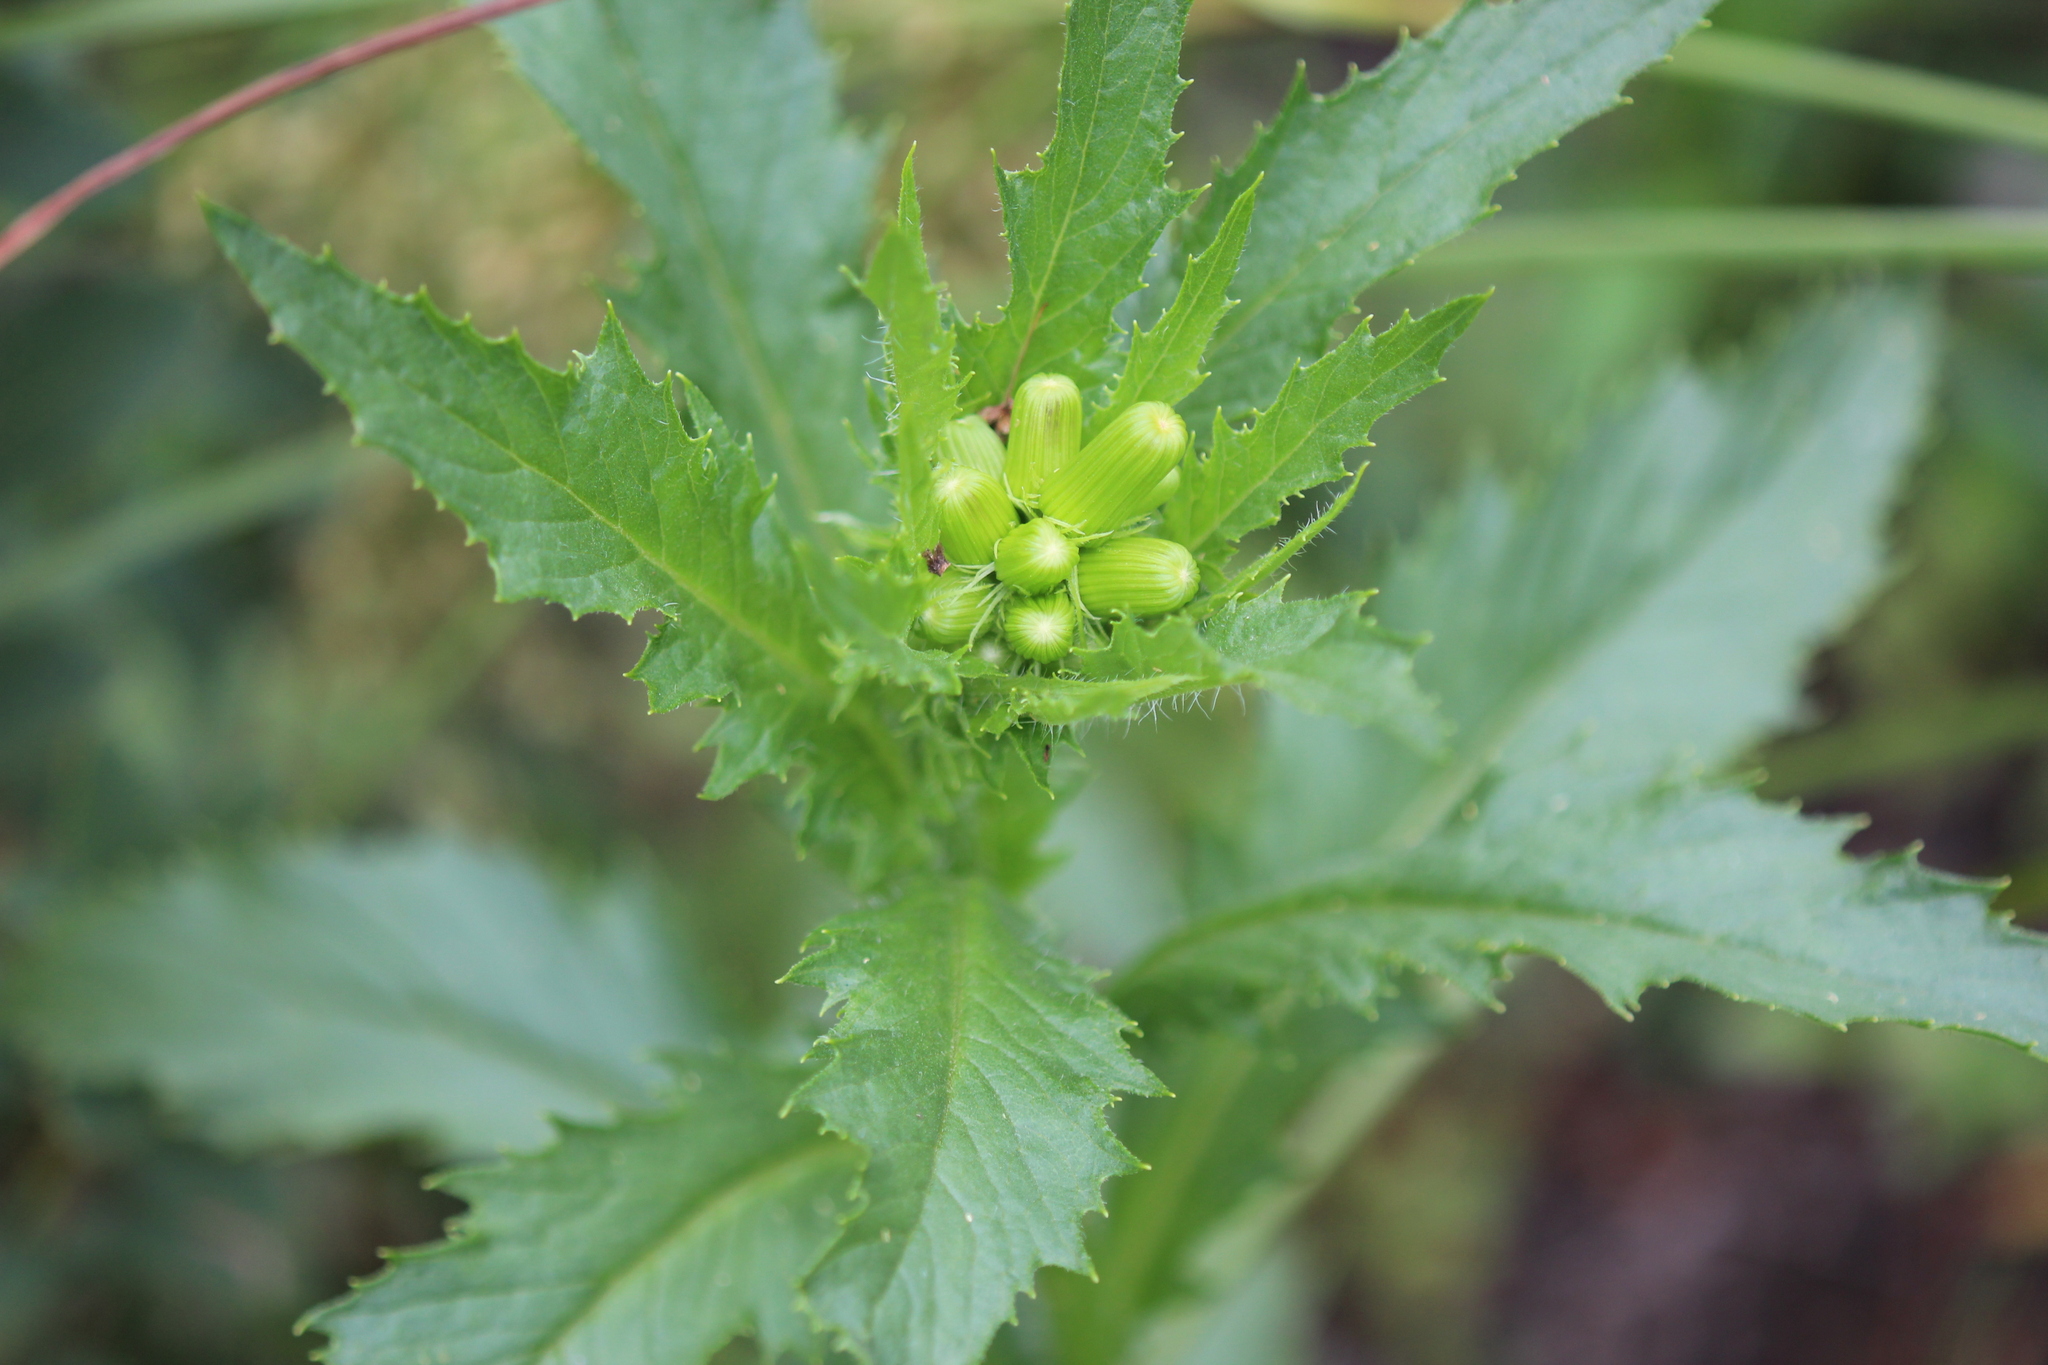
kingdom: Plantae
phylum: Tracheophyta
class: Magnoliopsida
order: Asterales
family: Asteraceae
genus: Erechtites
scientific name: Erechtites hieraciifolius
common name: American burnweed
